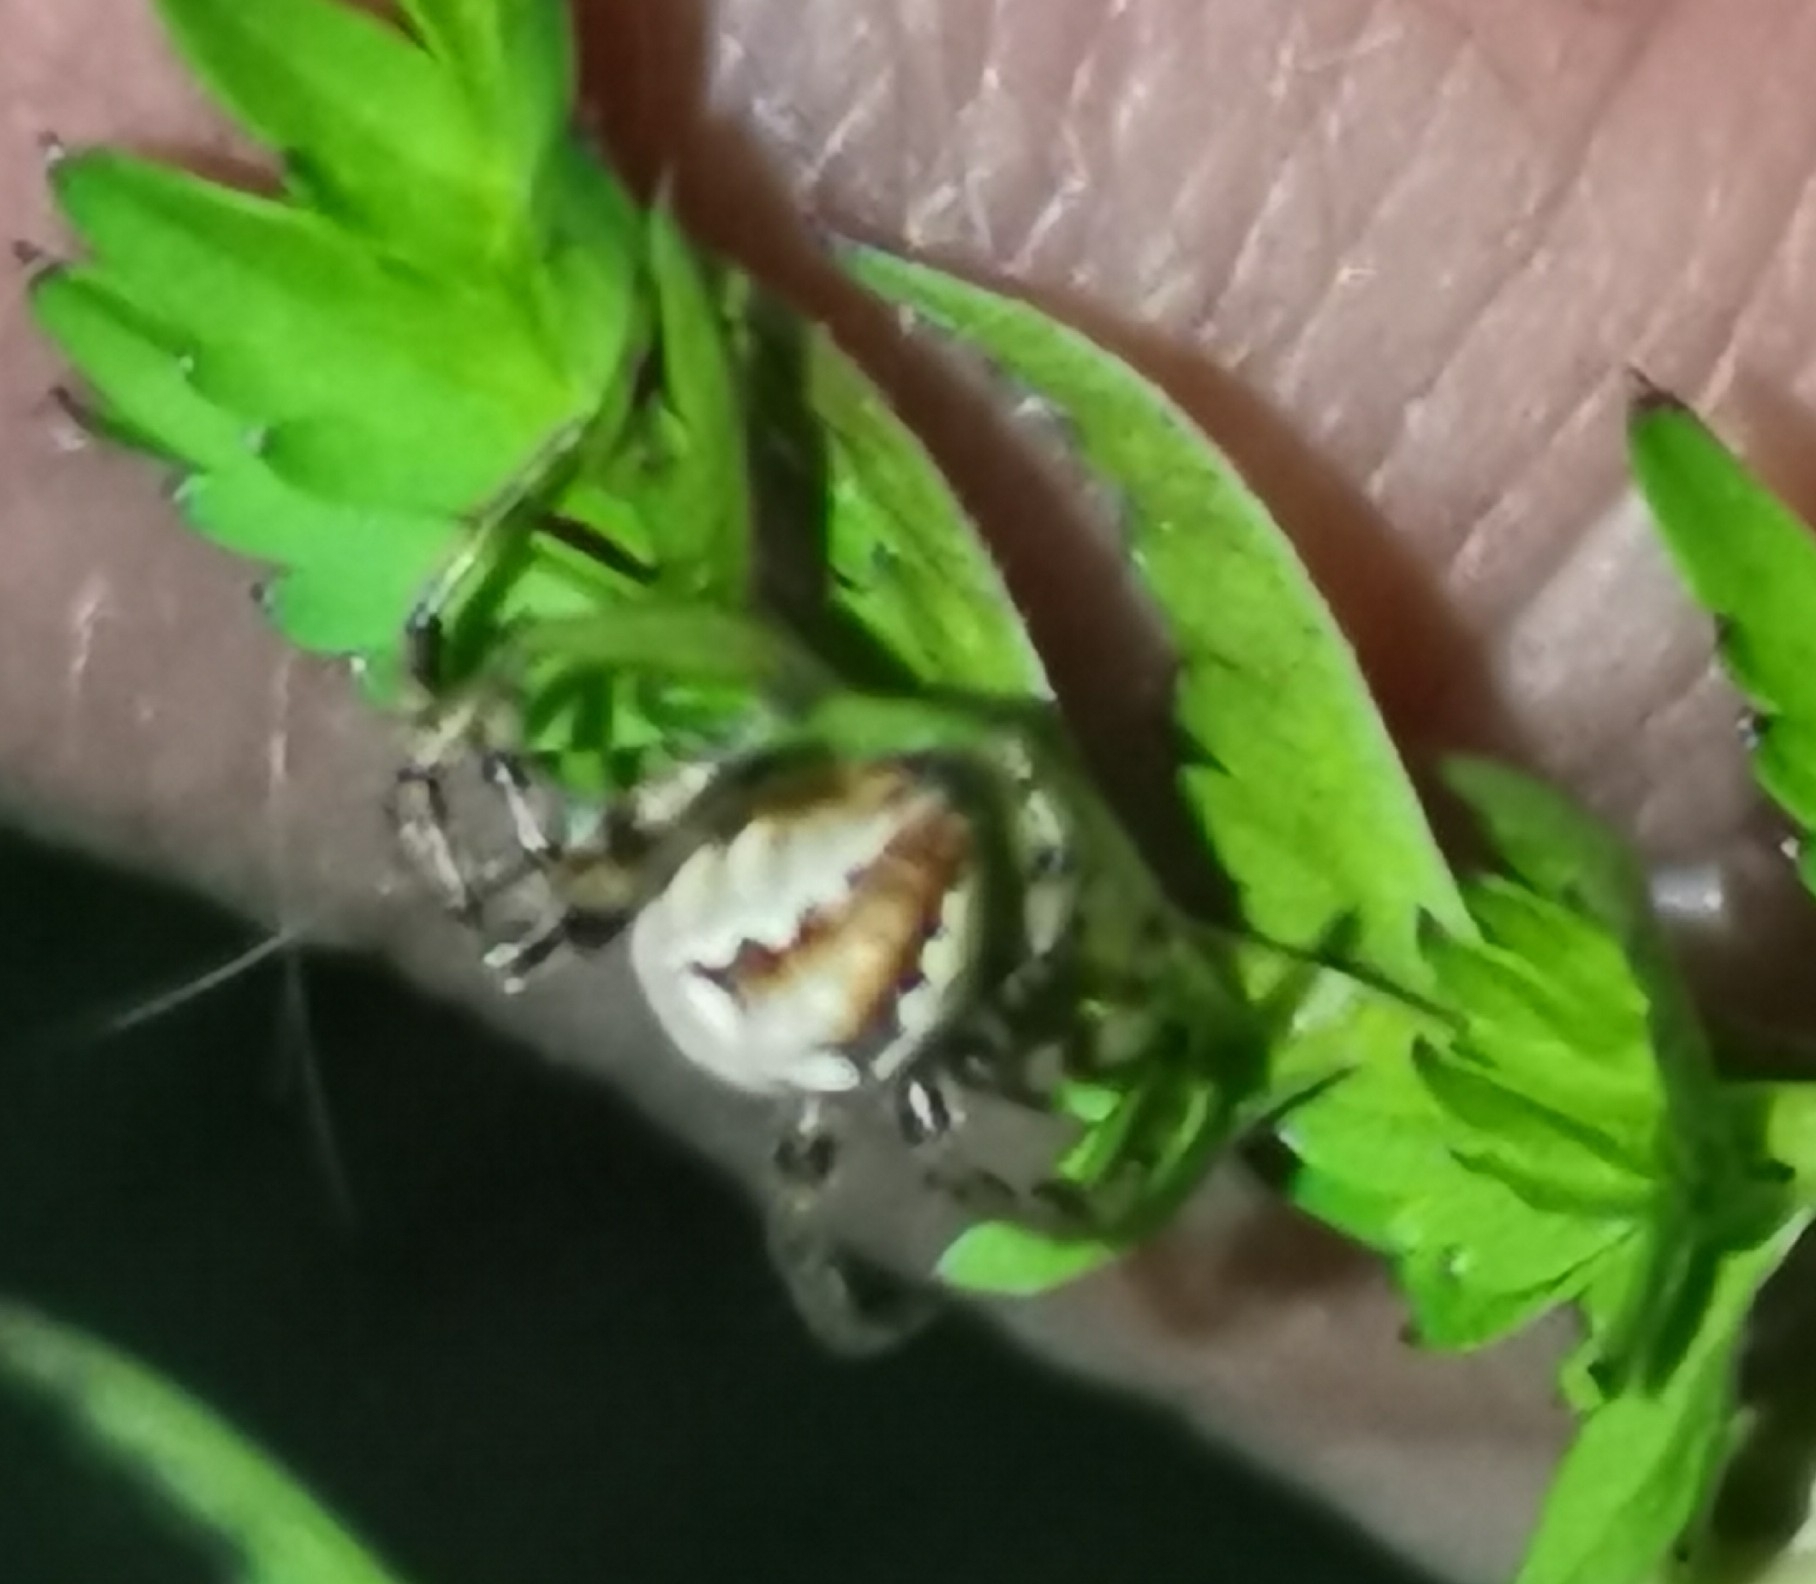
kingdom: Animalia
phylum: Arthropoda
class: Arachnida
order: Araneae
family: Araneidae
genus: Araneus
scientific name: Araneus quadratus
